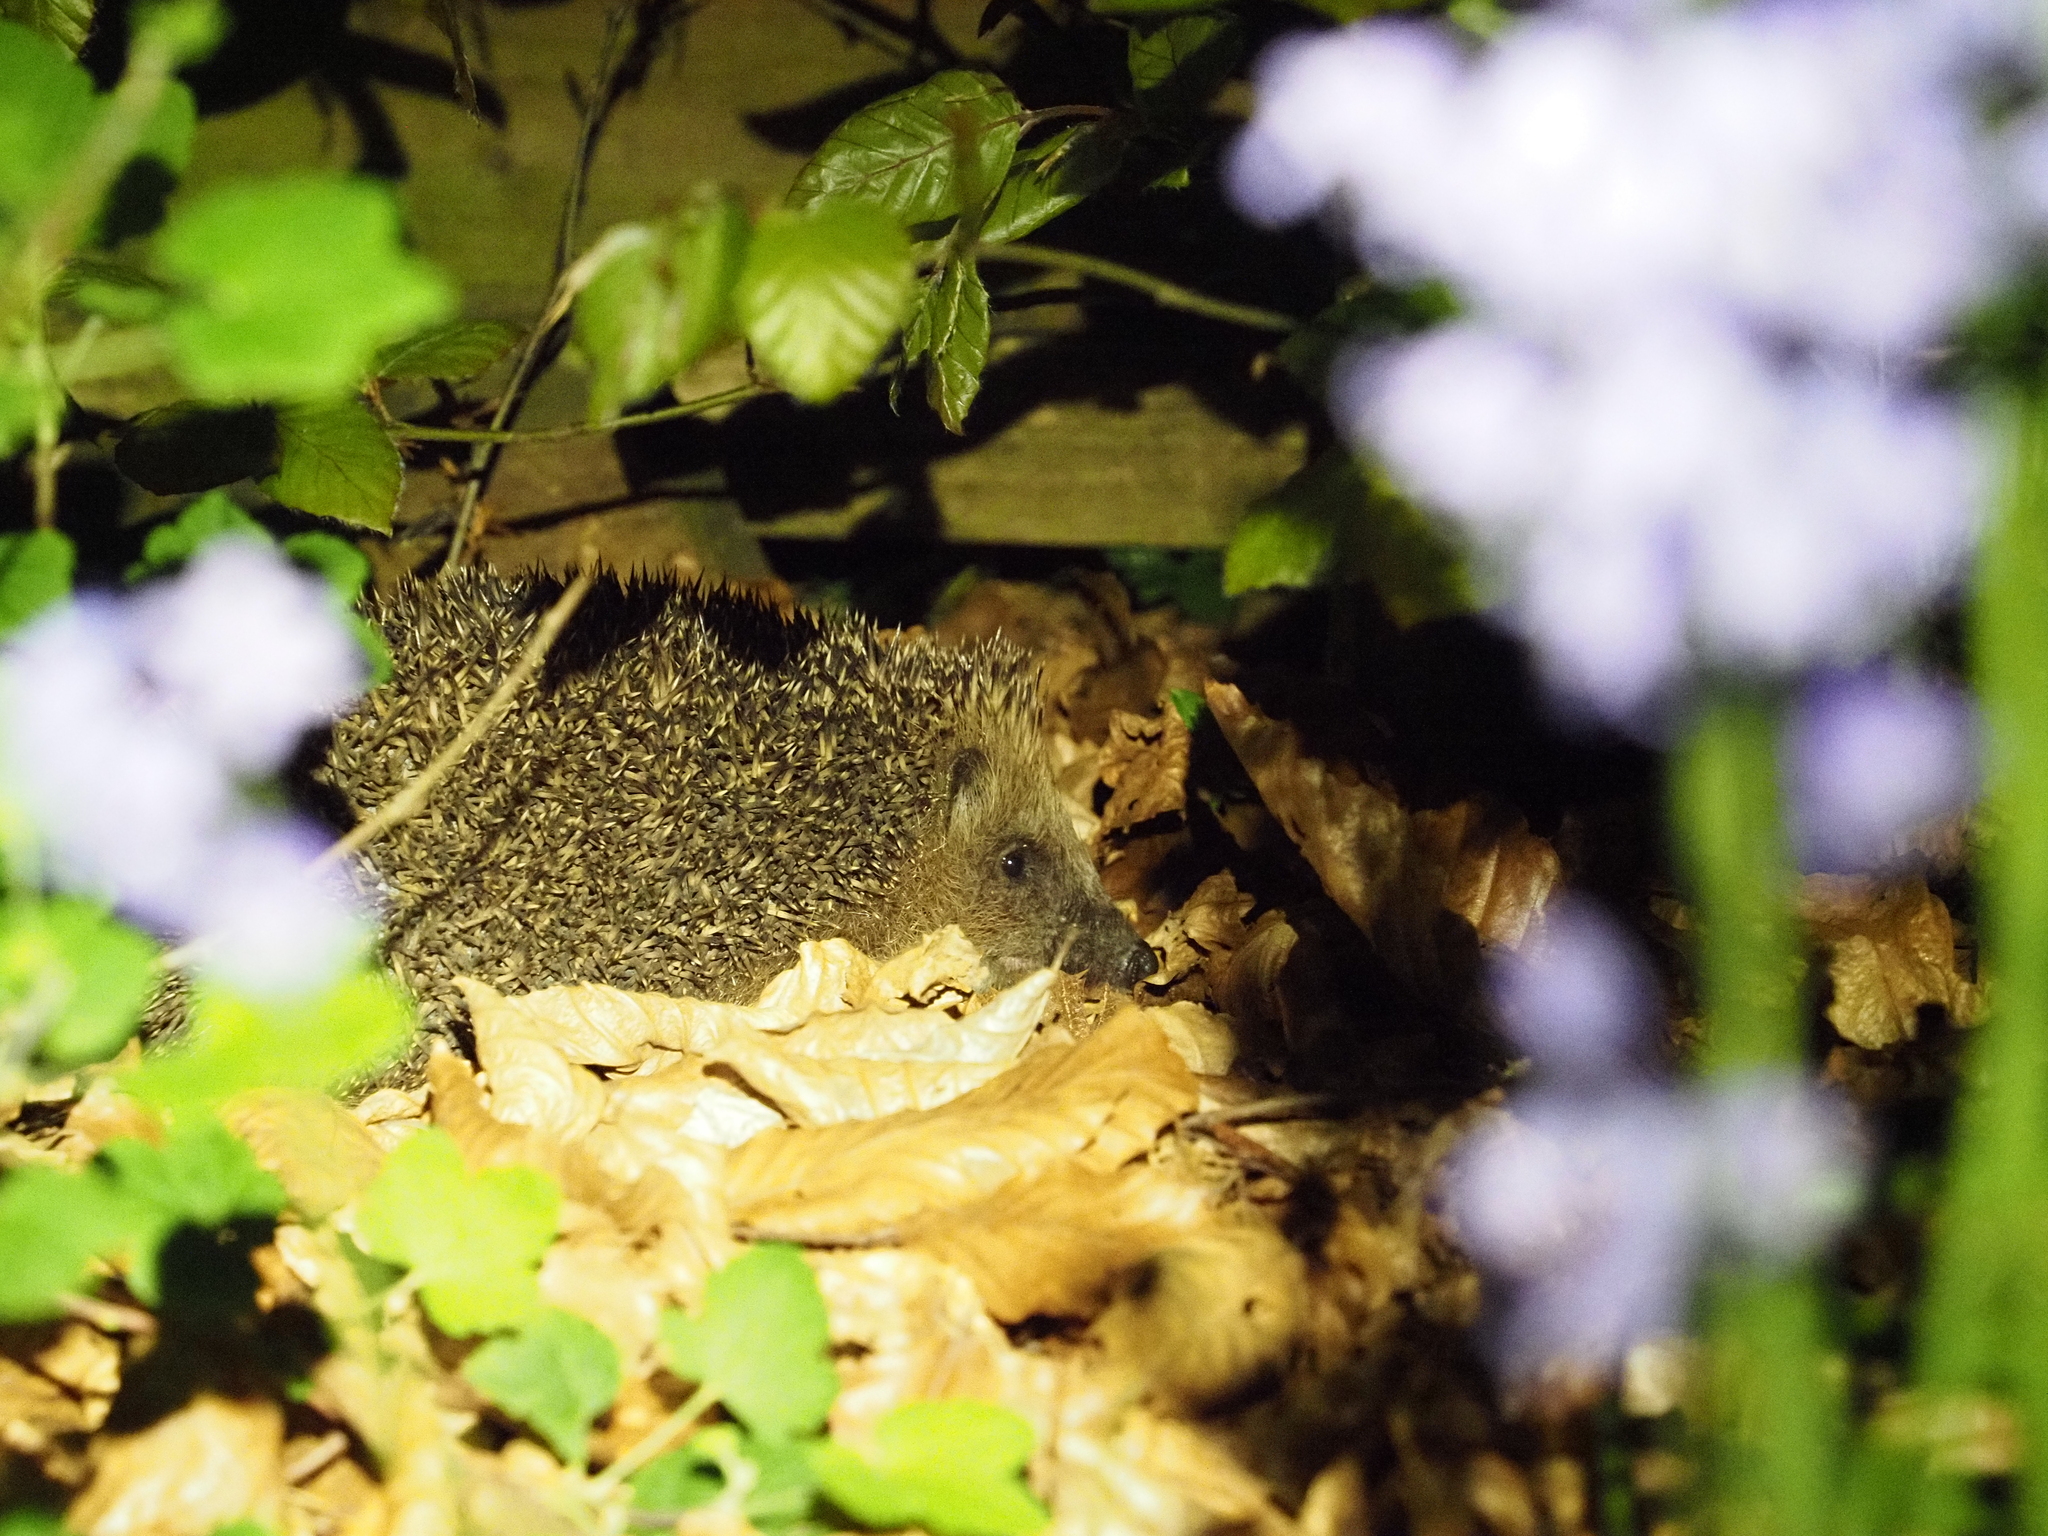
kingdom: Animalia
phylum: Chordata
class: Mammalia
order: Erinaceomorpha
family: Erinaceidae
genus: Erinaceus
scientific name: Erinaceus europaeus
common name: West european hedgehog
